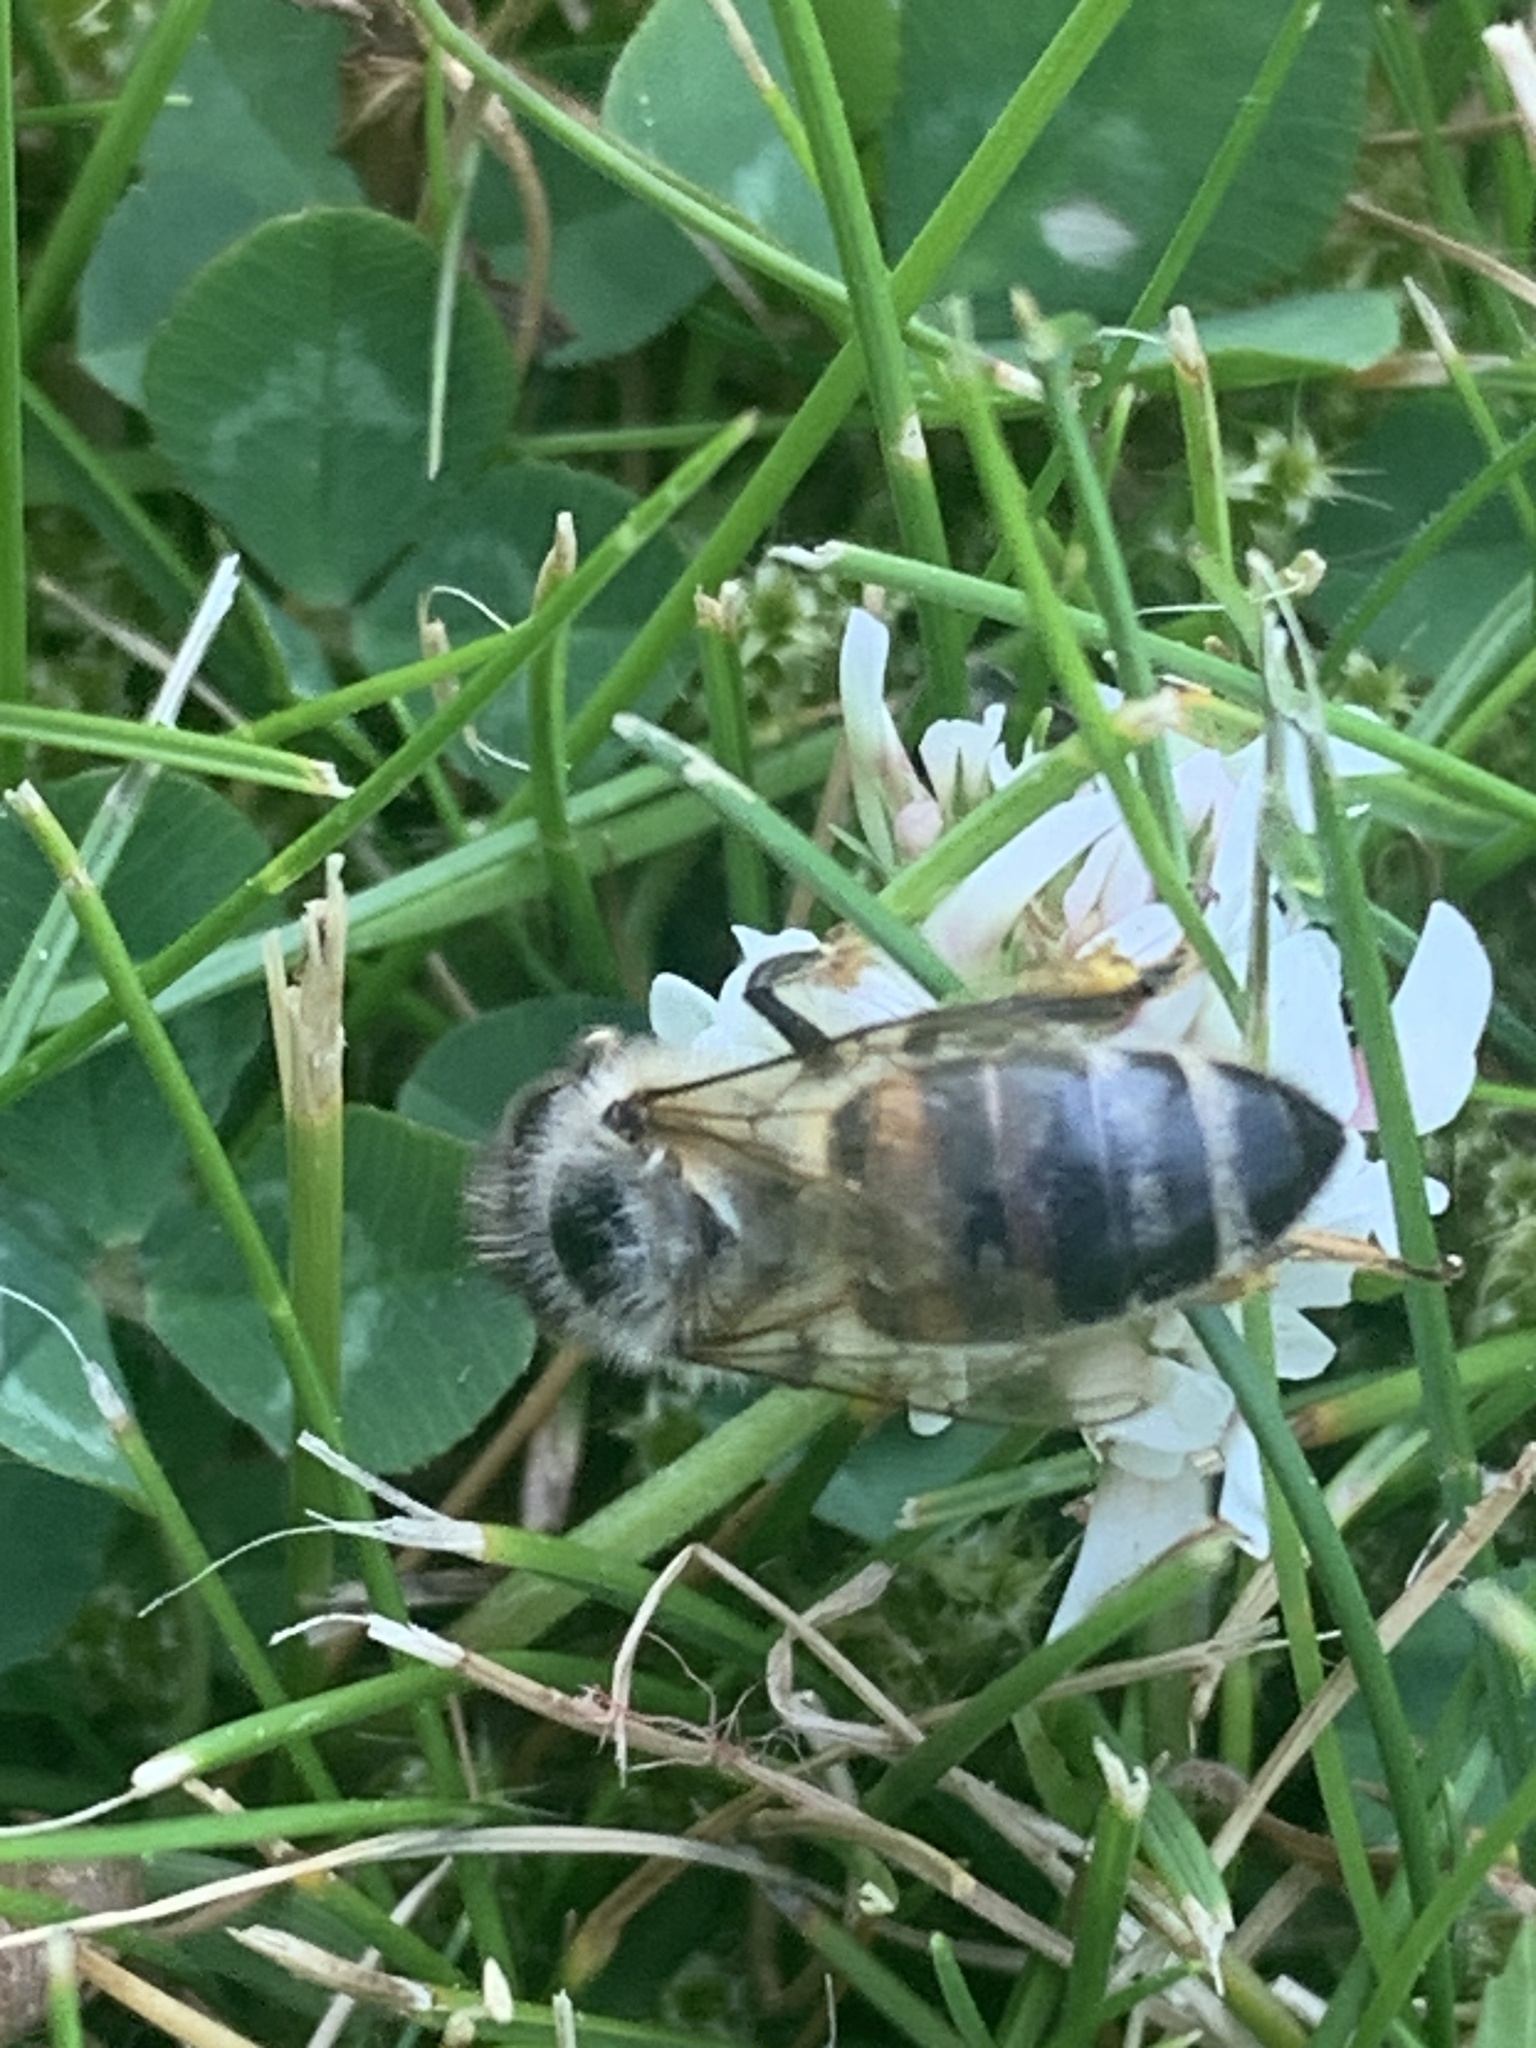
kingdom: Animalia
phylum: Arthropoda
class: Insecta
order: Hymenoptera
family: Apidae
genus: Apis
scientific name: Apis mellifera
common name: Honey bee
